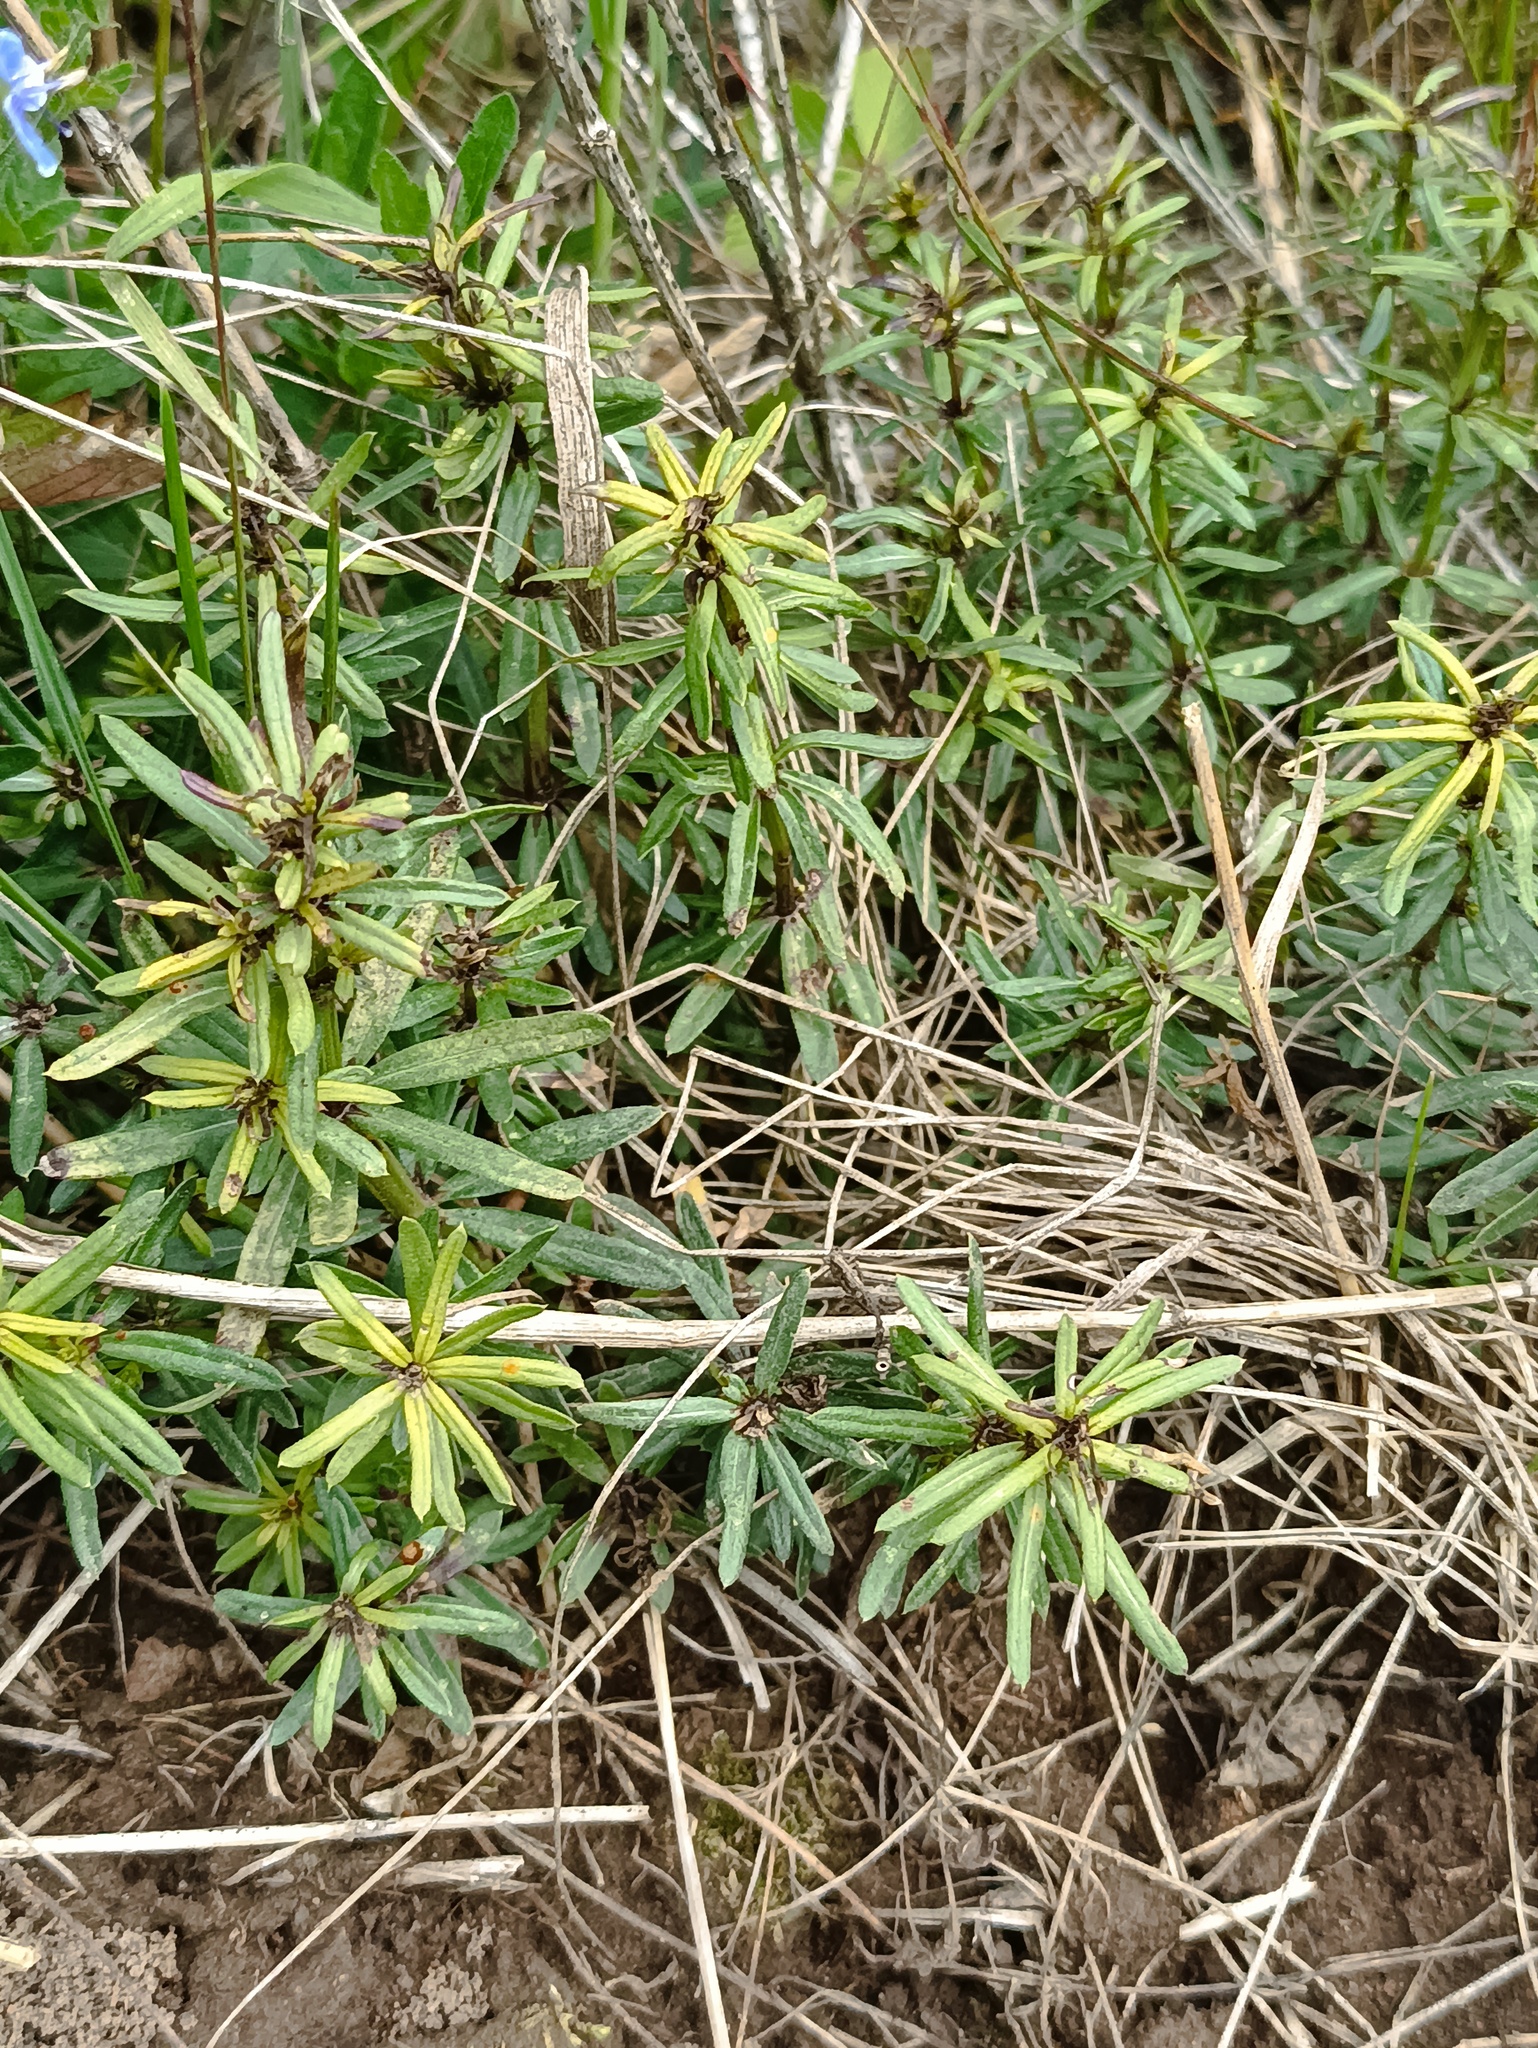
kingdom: Plantae
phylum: Tracheophyta
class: Magnoliopsida
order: Ericales
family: Ericaceae
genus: Rhododendron
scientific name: Rhododendron tomentosum
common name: Marsh labrador tea
